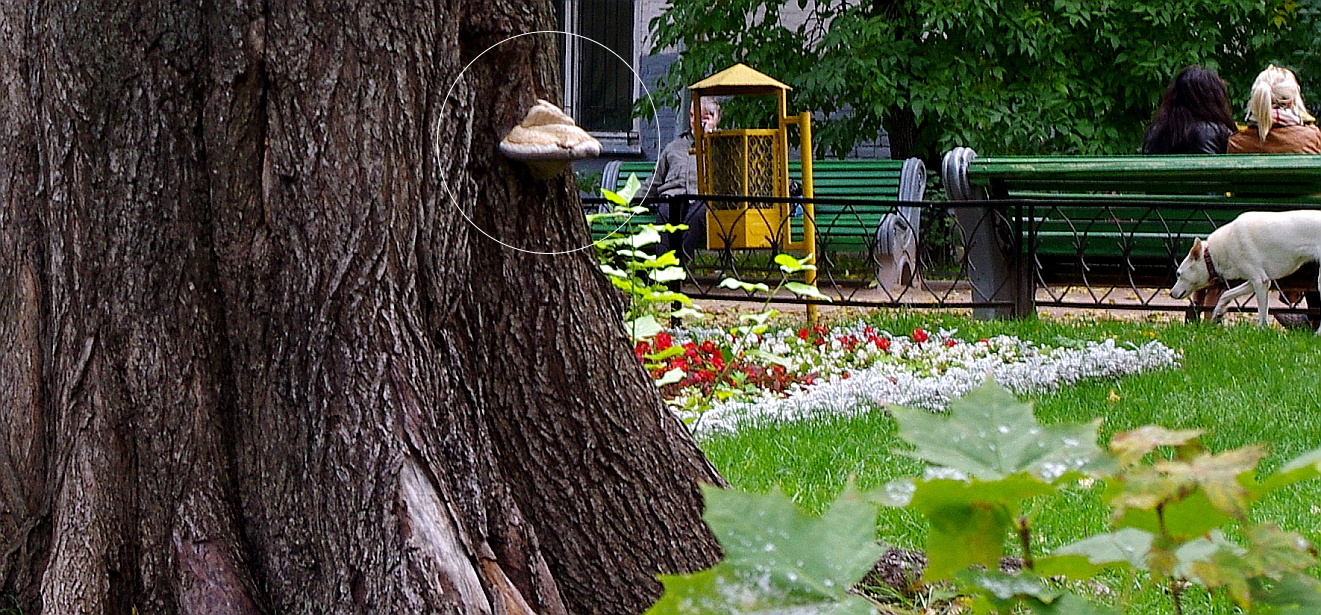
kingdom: Fungi
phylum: Basidiomycota
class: Agaricomycetes
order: Polyporales
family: Polyporaceae
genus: Fomes
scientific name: Fomes fomentarius
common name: Hoof fungus
